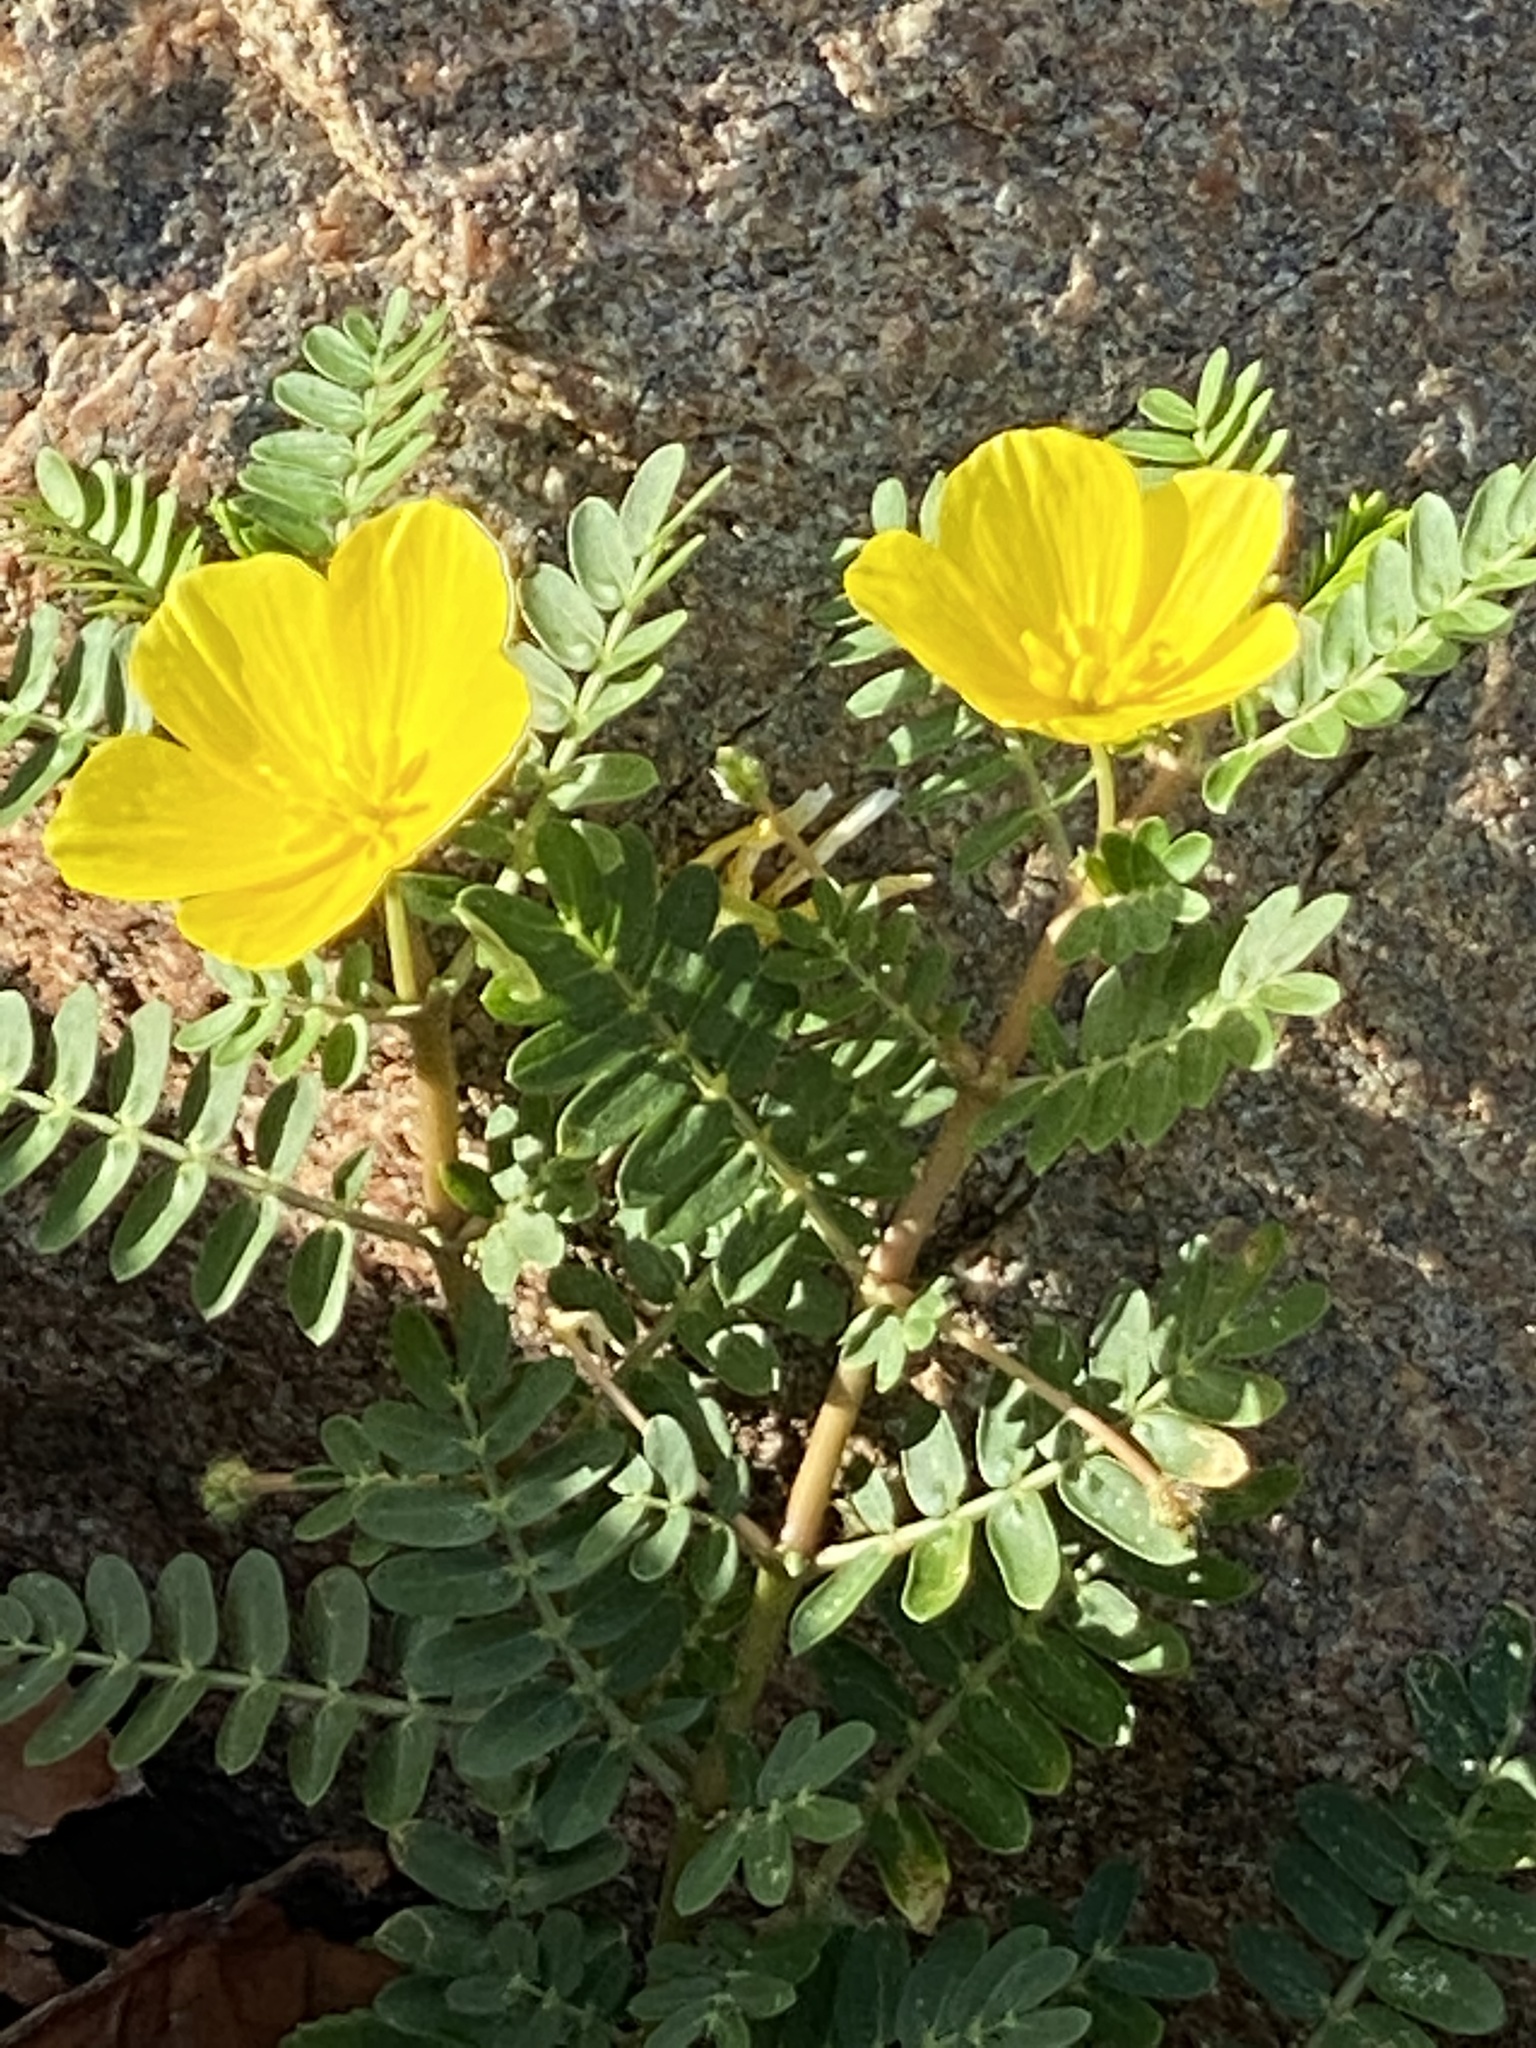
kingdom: Plantae
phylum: Tracheophyta
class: Magnoliopsida
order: Zygophyllales
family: Zygophyllaceae
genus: Tribulus
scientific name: Tribulus cistoides
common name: Jamaican feverplant
